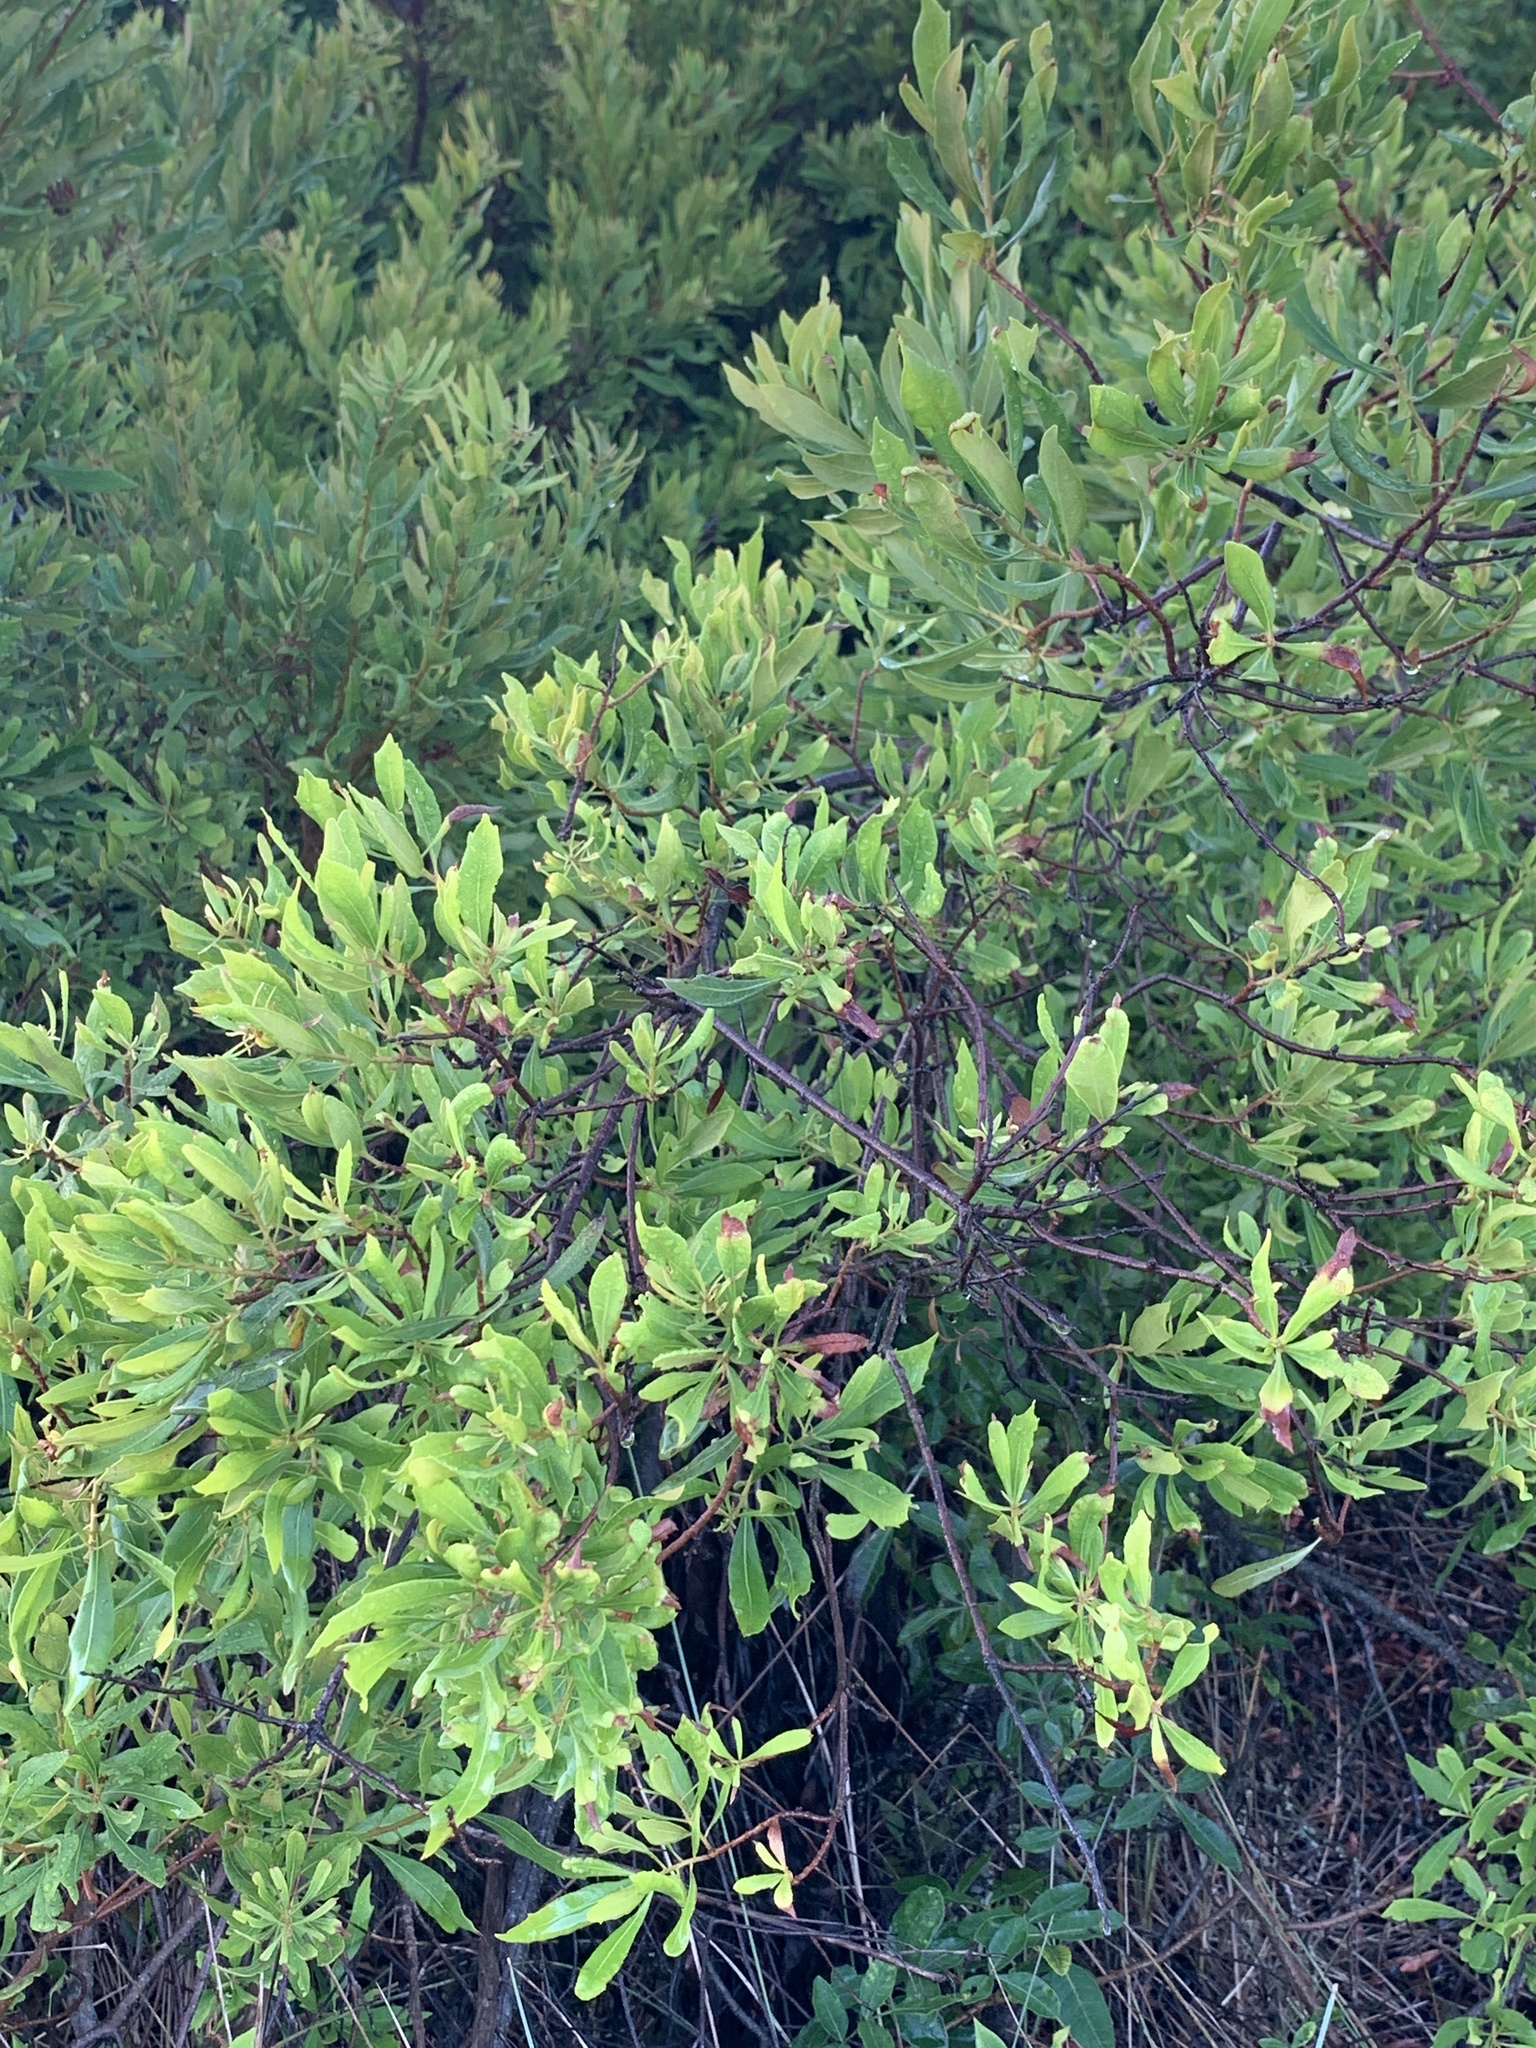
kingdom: Plantae
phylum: Tracheophyta
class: Magnoliopsida
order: Fagales
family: Myricaceae
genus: Morella
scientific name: Morella cerifera
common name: Wax myrtle
